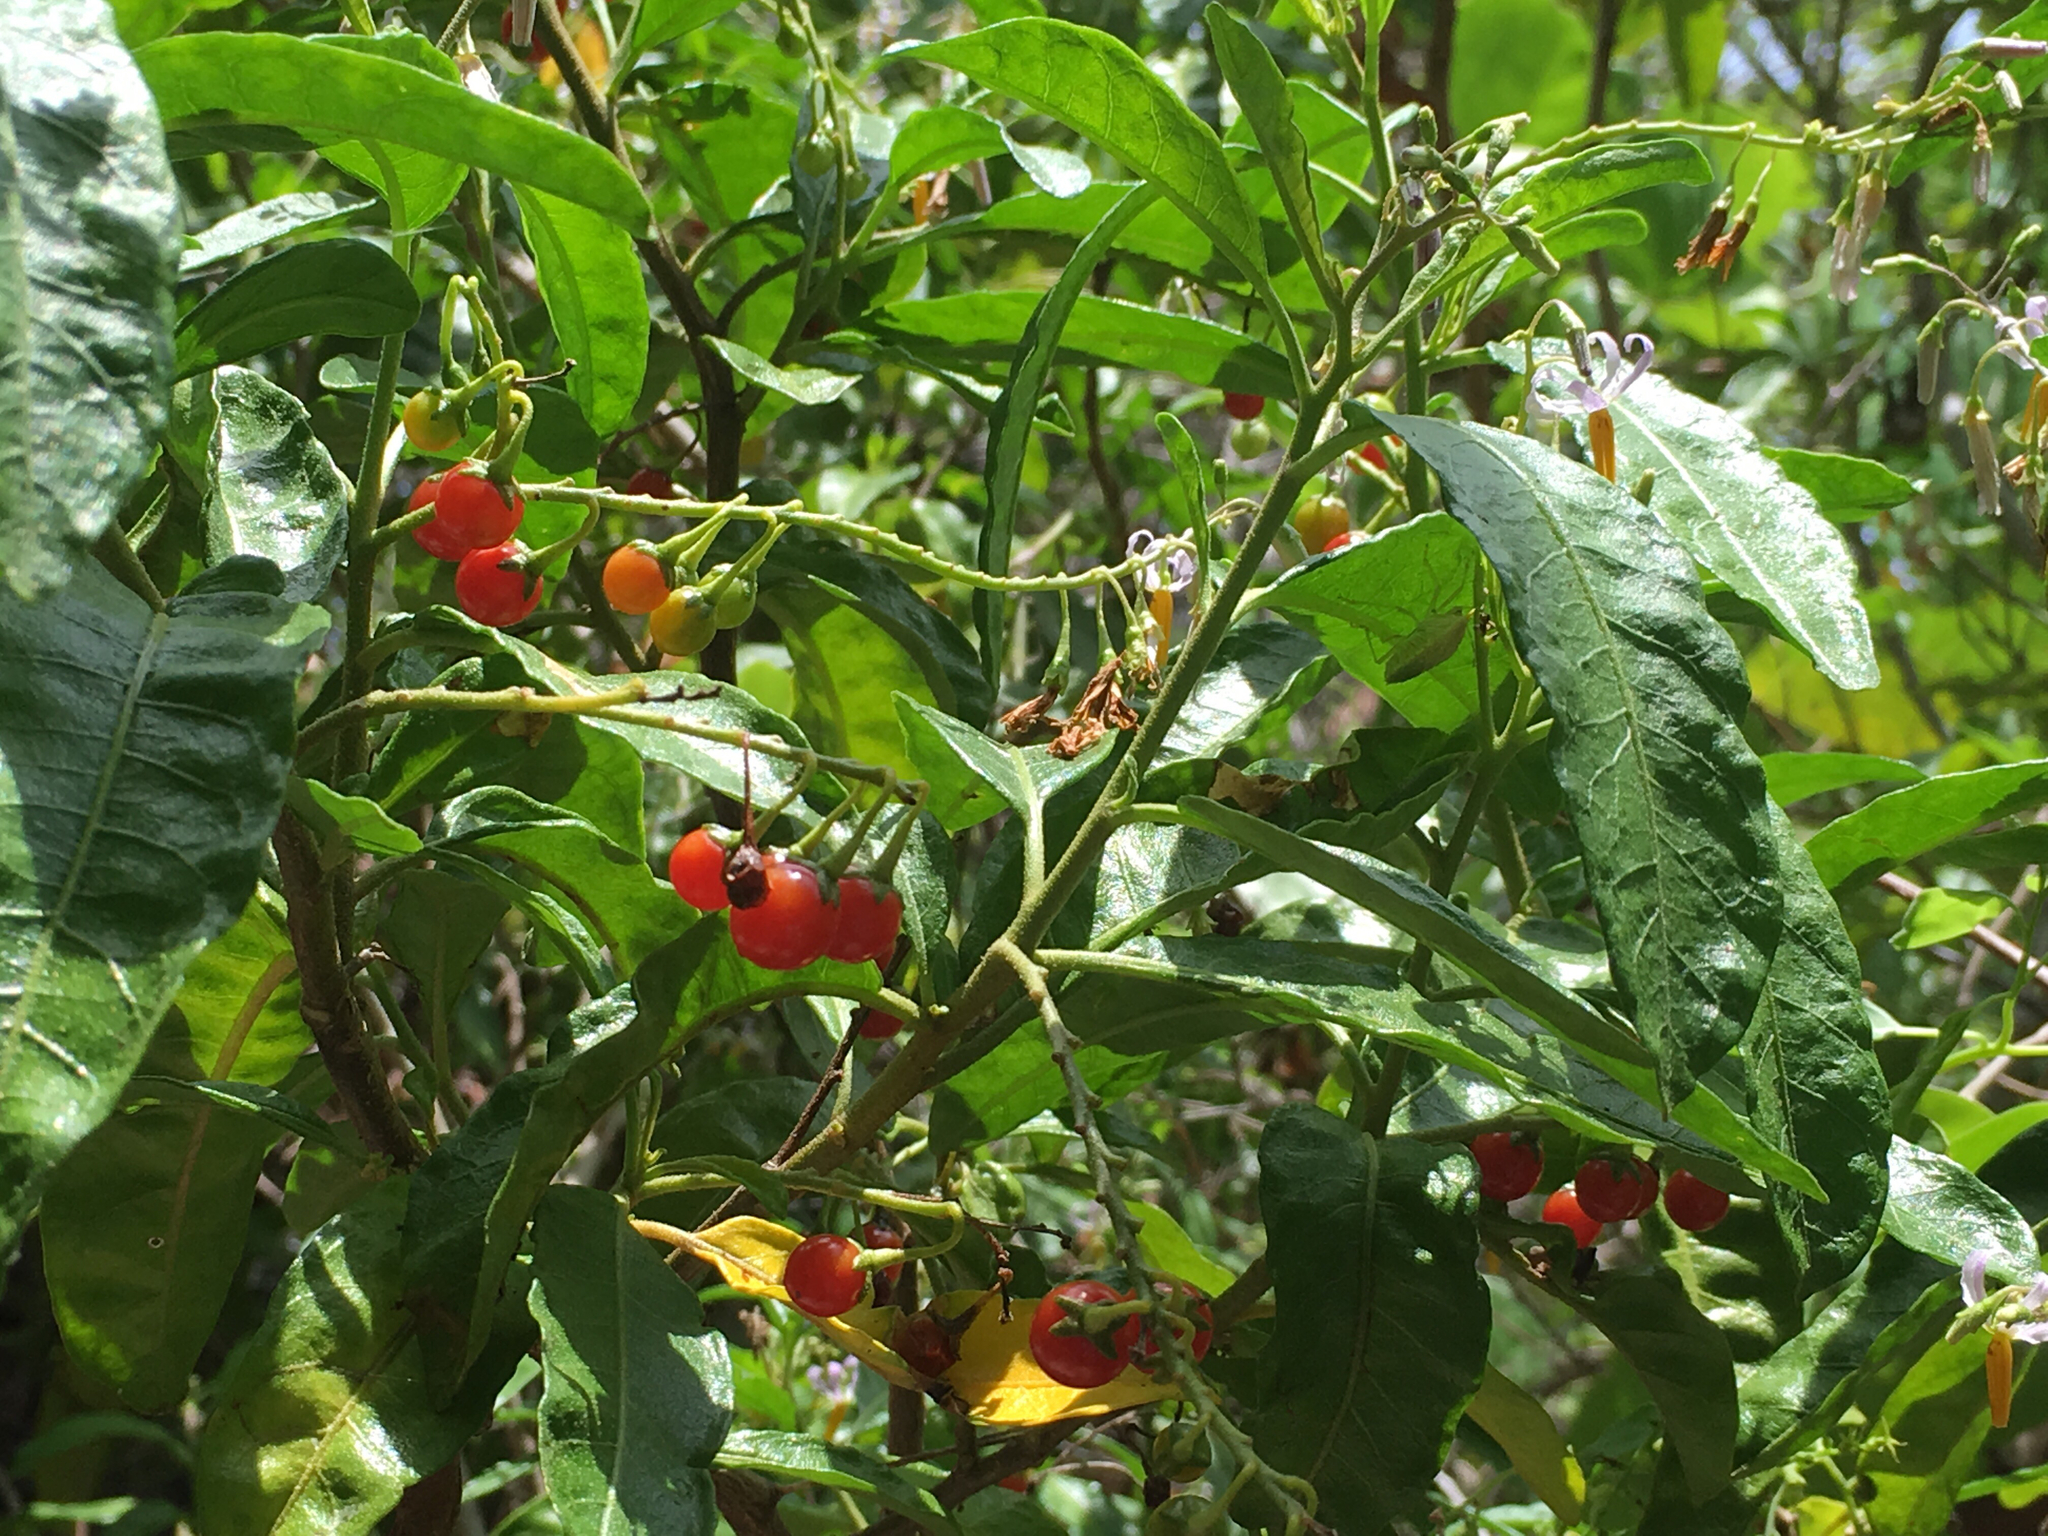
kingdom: Plantae
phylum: Tracheophyta
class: Magnoliopsida
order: Solanales
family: Solanaceae
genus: Solanum
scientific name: Solanum bahamense
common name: Canker-berry
